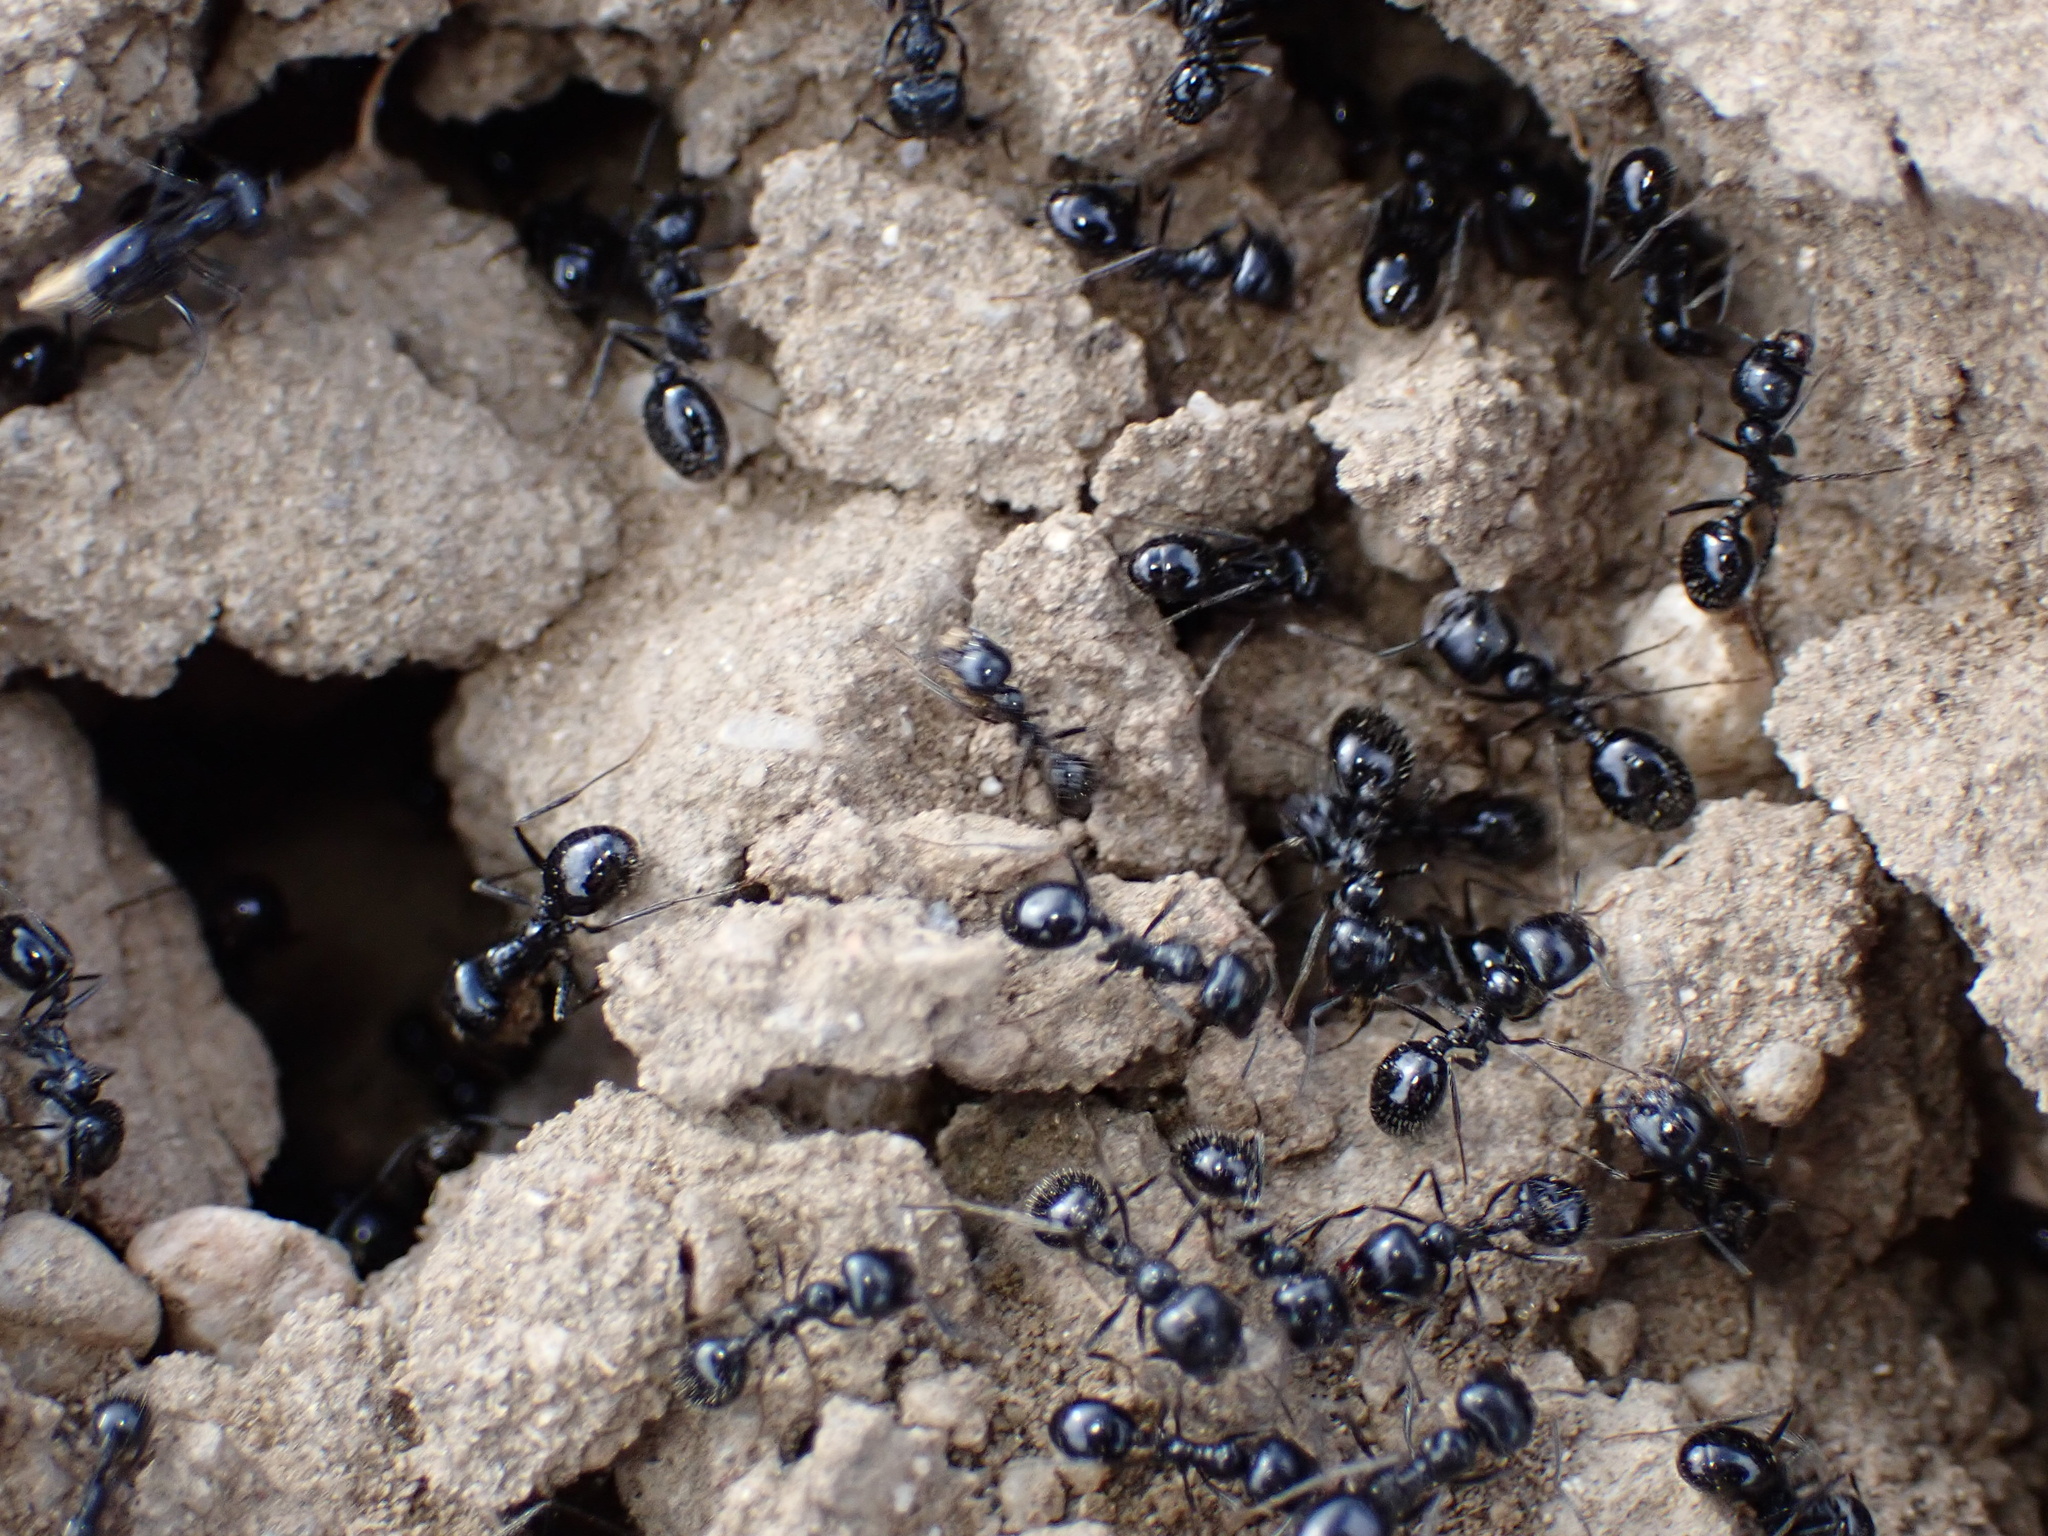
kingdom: Animalia
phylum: Arthropoda
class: Insecta
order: Hymenoptera
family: Formicidae
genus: Messor
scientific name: Messor pergandei
